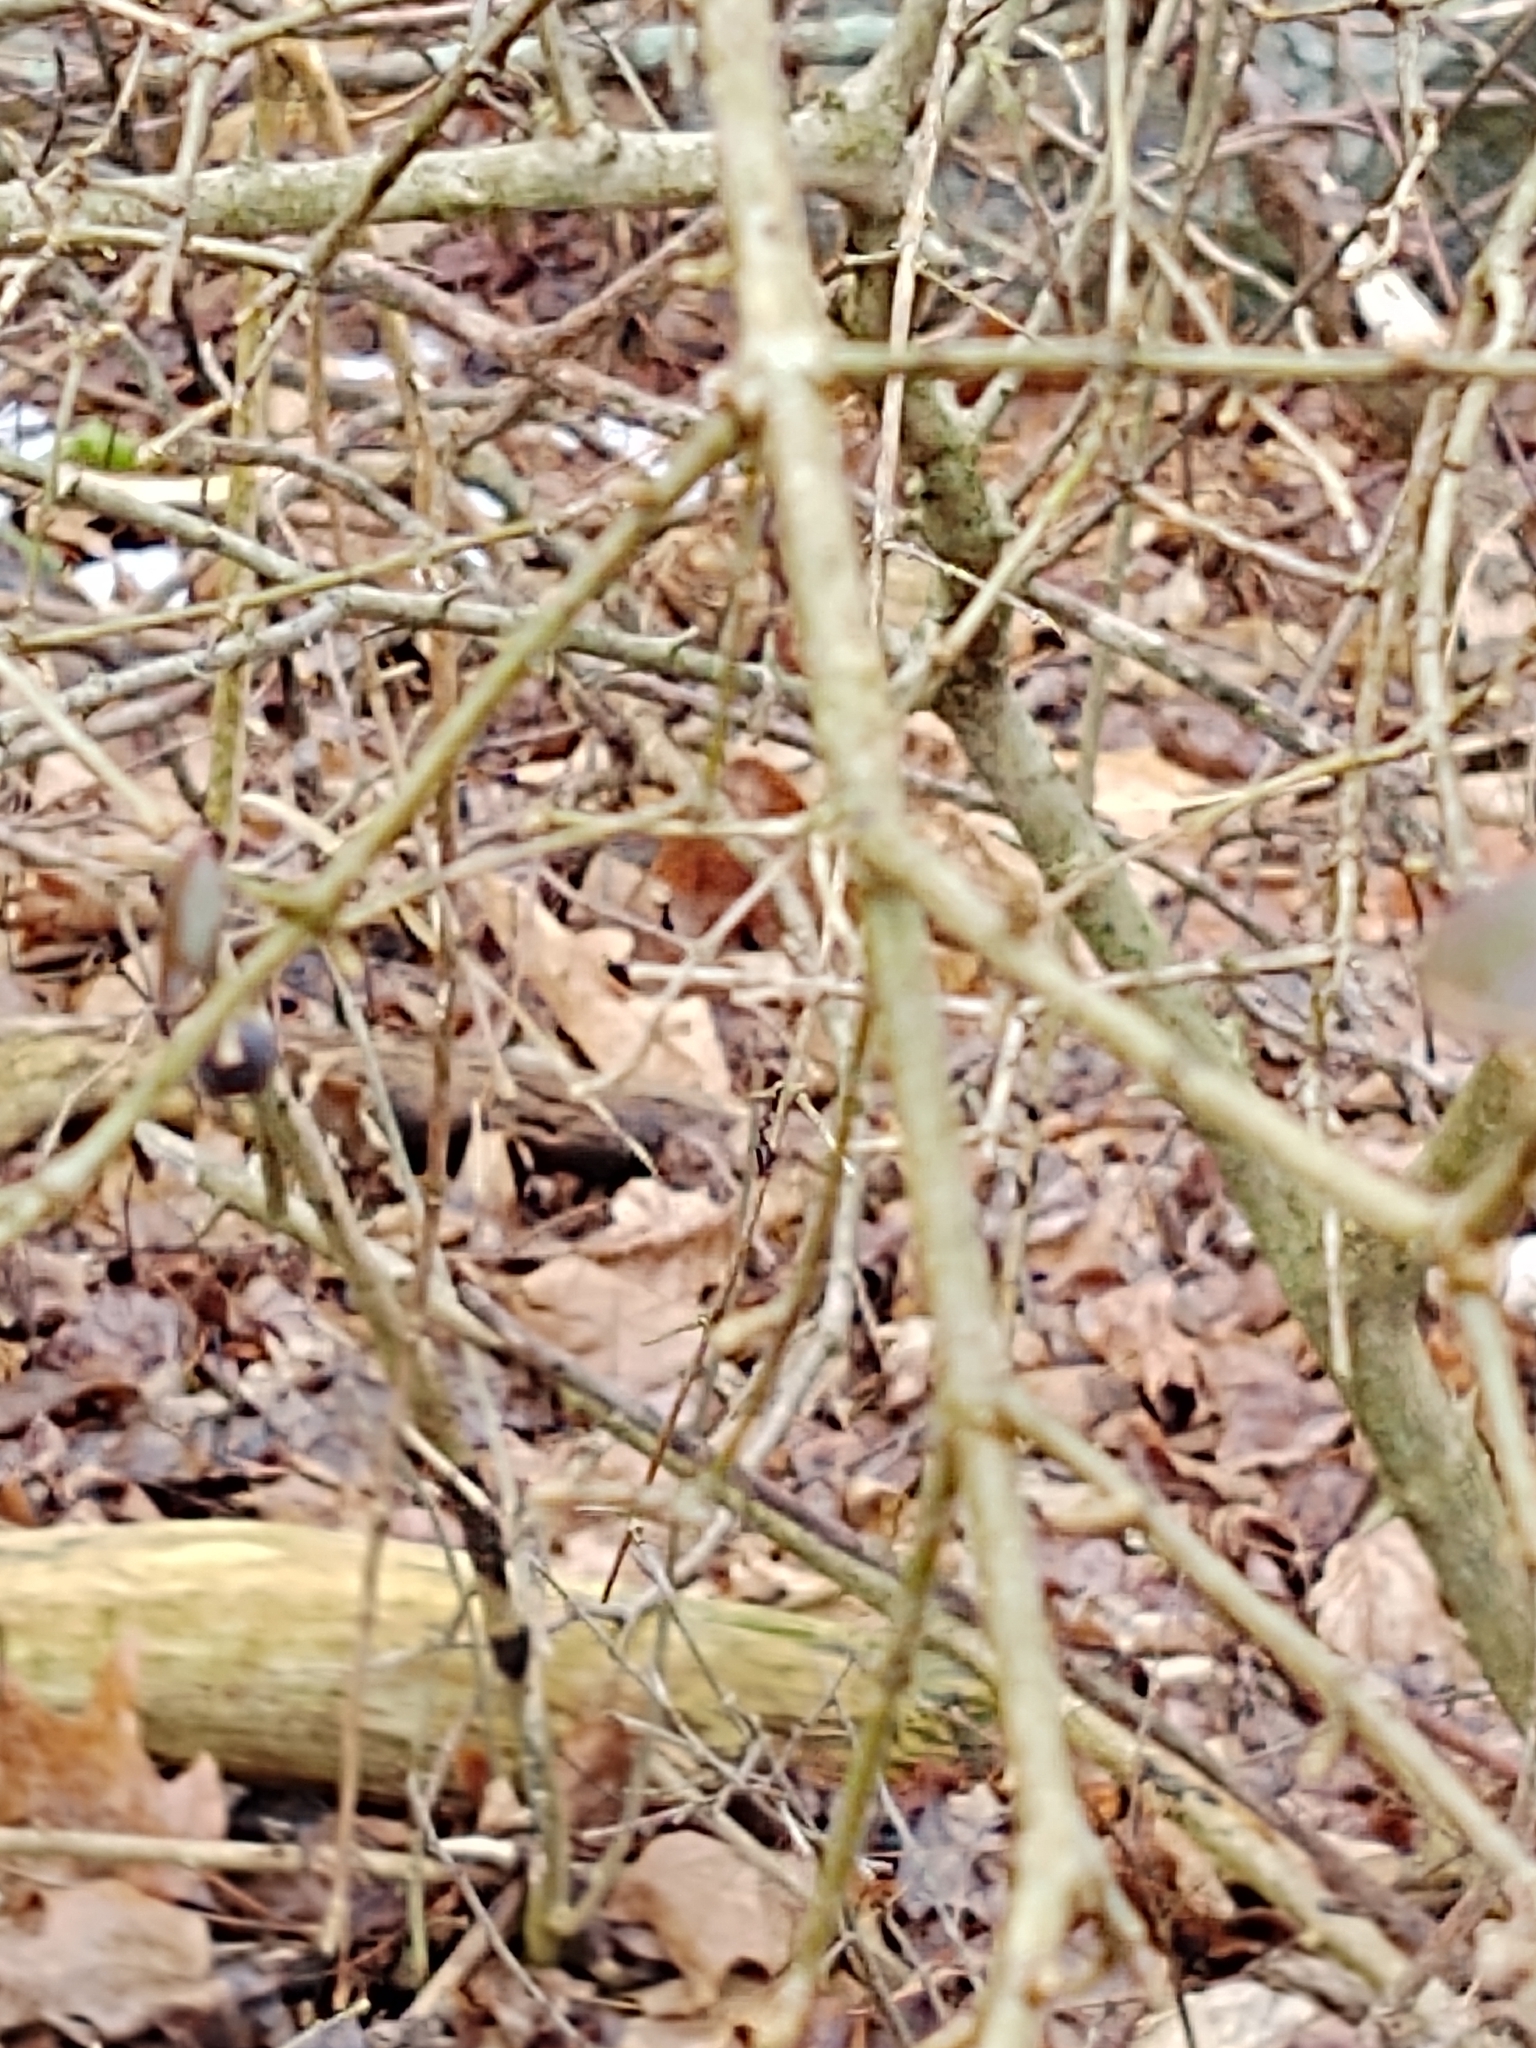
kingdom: Plantae
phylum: Tracheophyta
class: Magnoliopsida
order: Lamiales
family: Oleaceae
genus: Ligustrum
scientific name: Ligustrum
